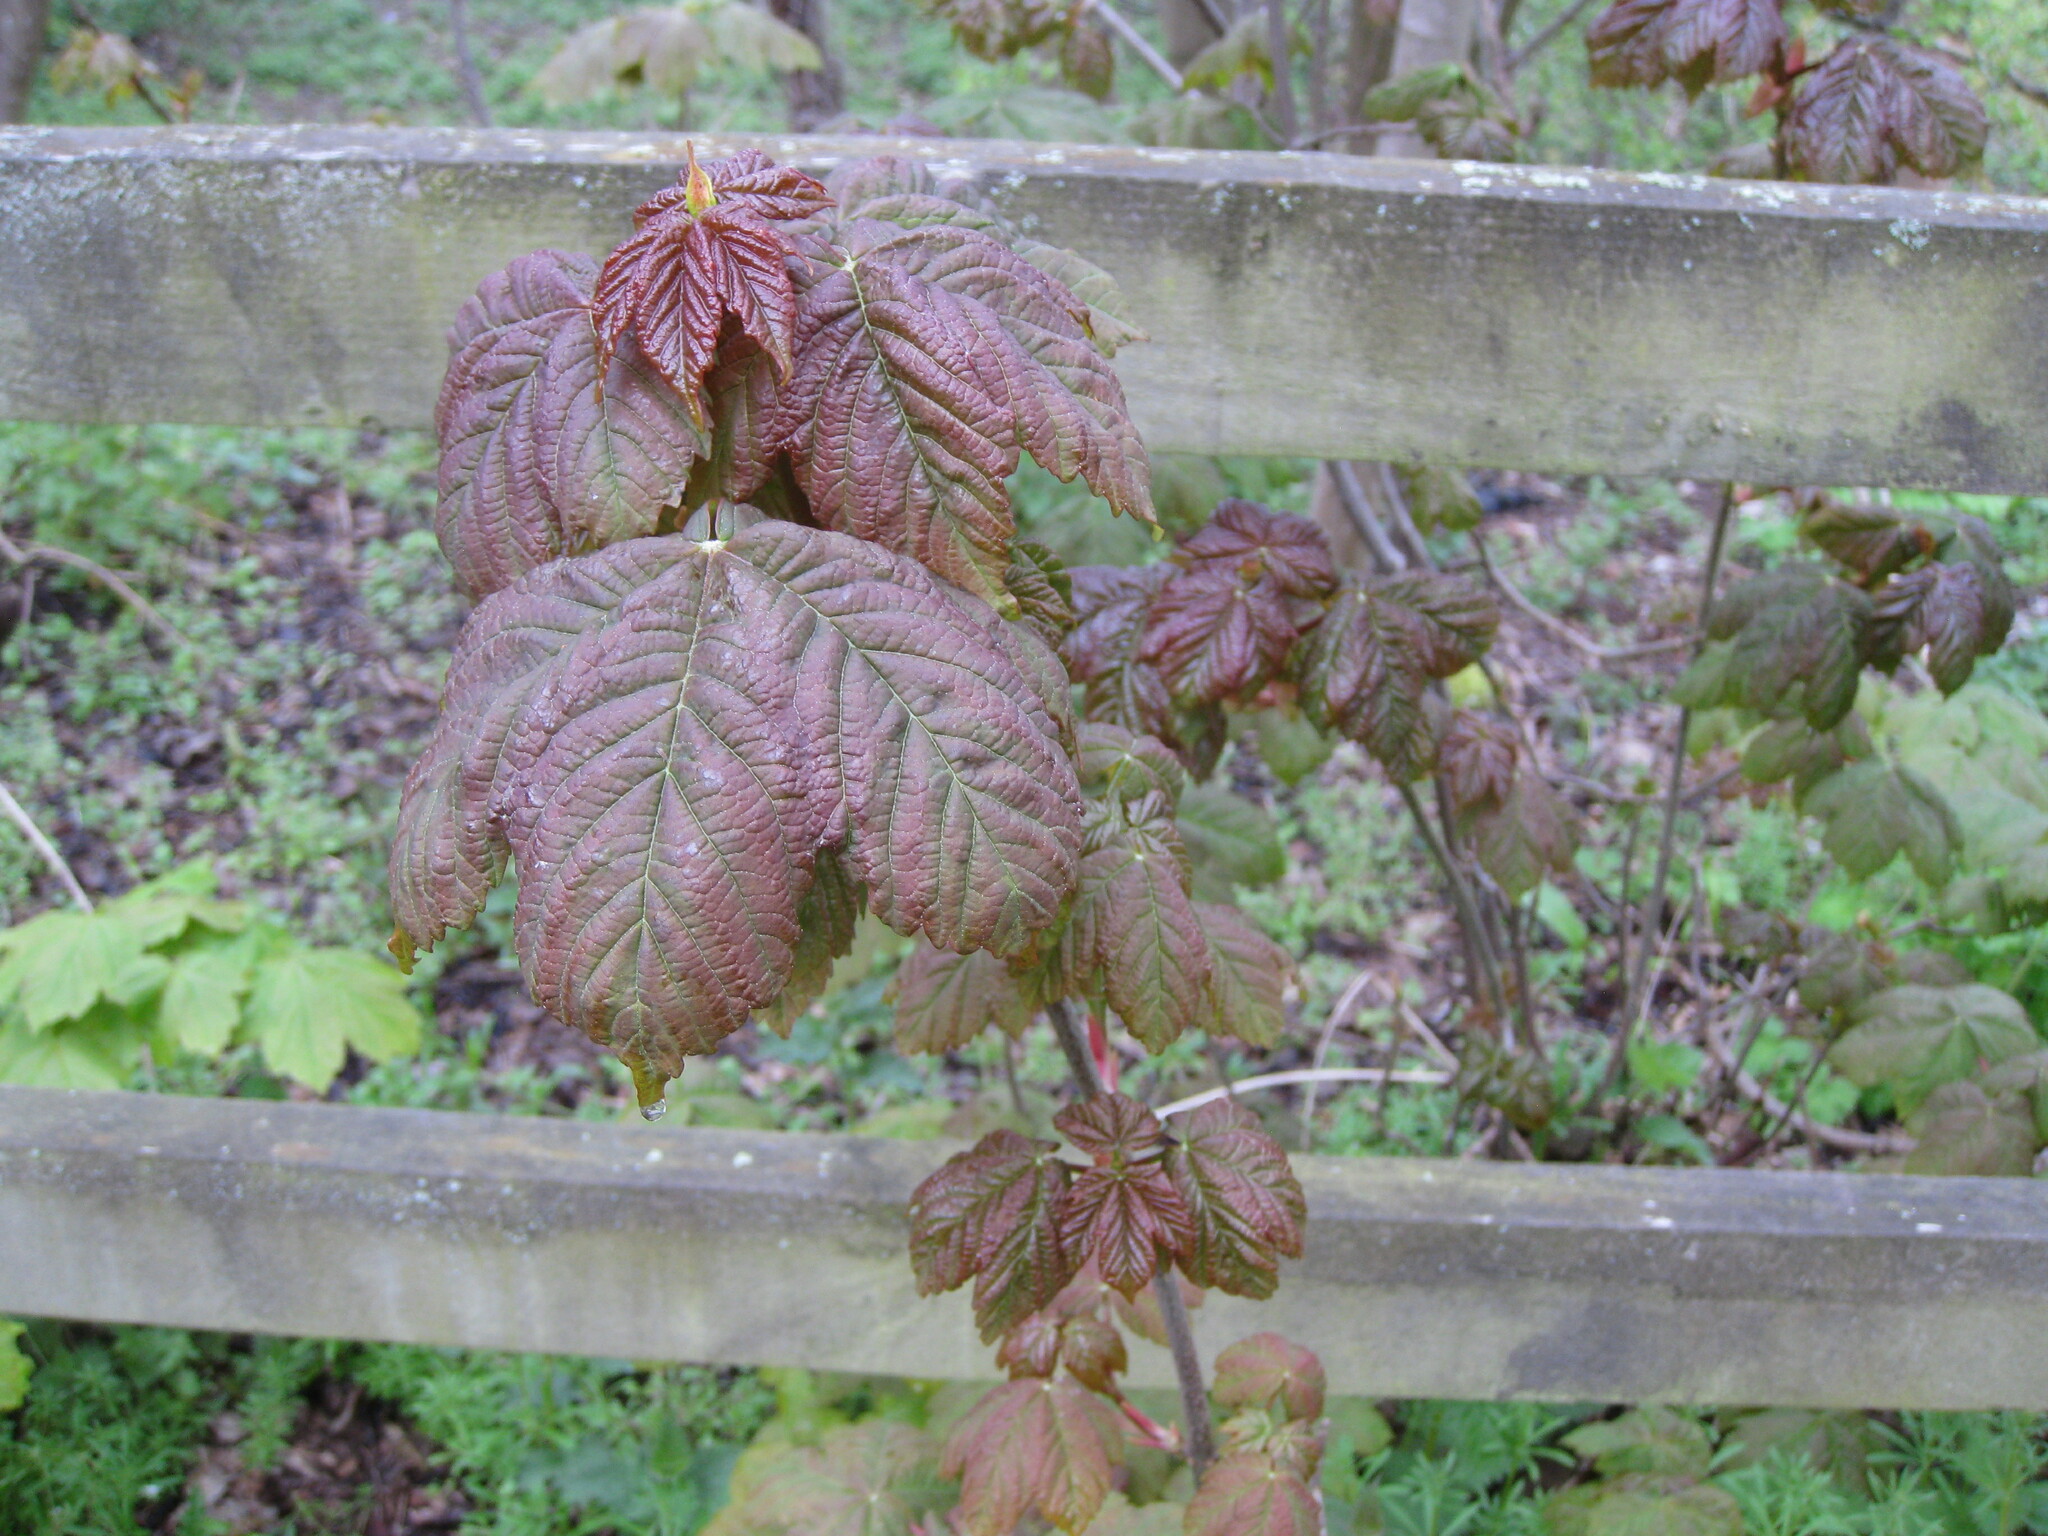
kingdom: Plantae
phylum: Tracheophyta
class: Magnoliopsida
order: Sapindales
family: Sapindaceae
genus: Acer
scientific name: Acer pseudoplatanus
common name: Sycamore
